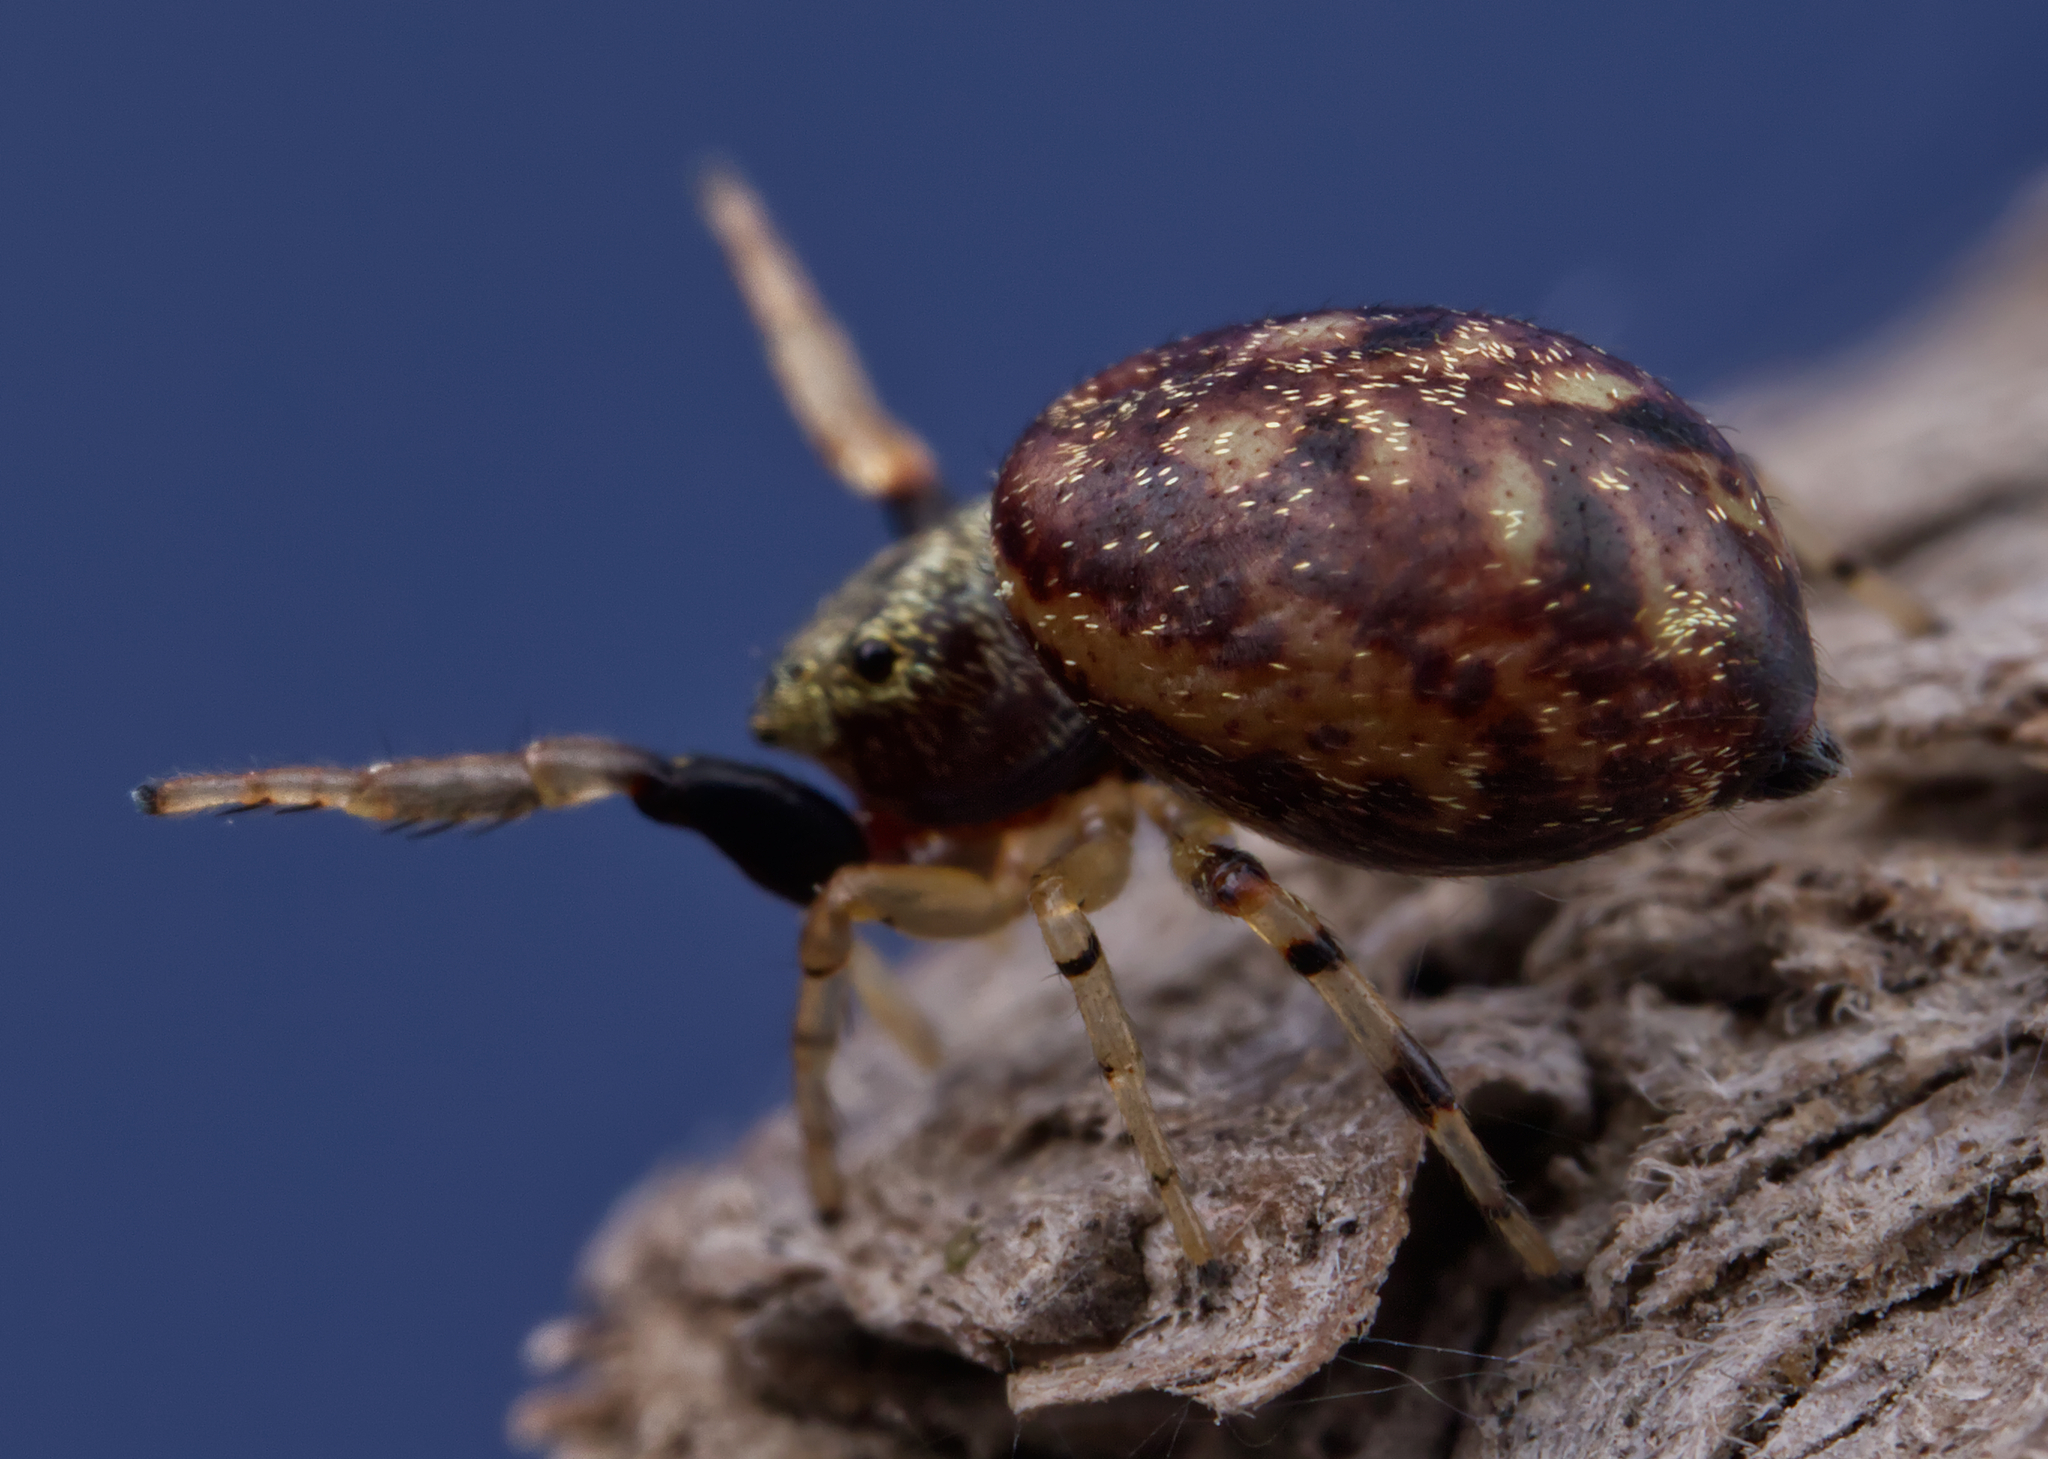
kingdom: Animalia
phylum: Arthropoda
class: Arachnida
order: Araneae
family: Salticidae
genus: Zygoballus
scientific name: Zygoballus rufipes
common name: Jumping spiders
